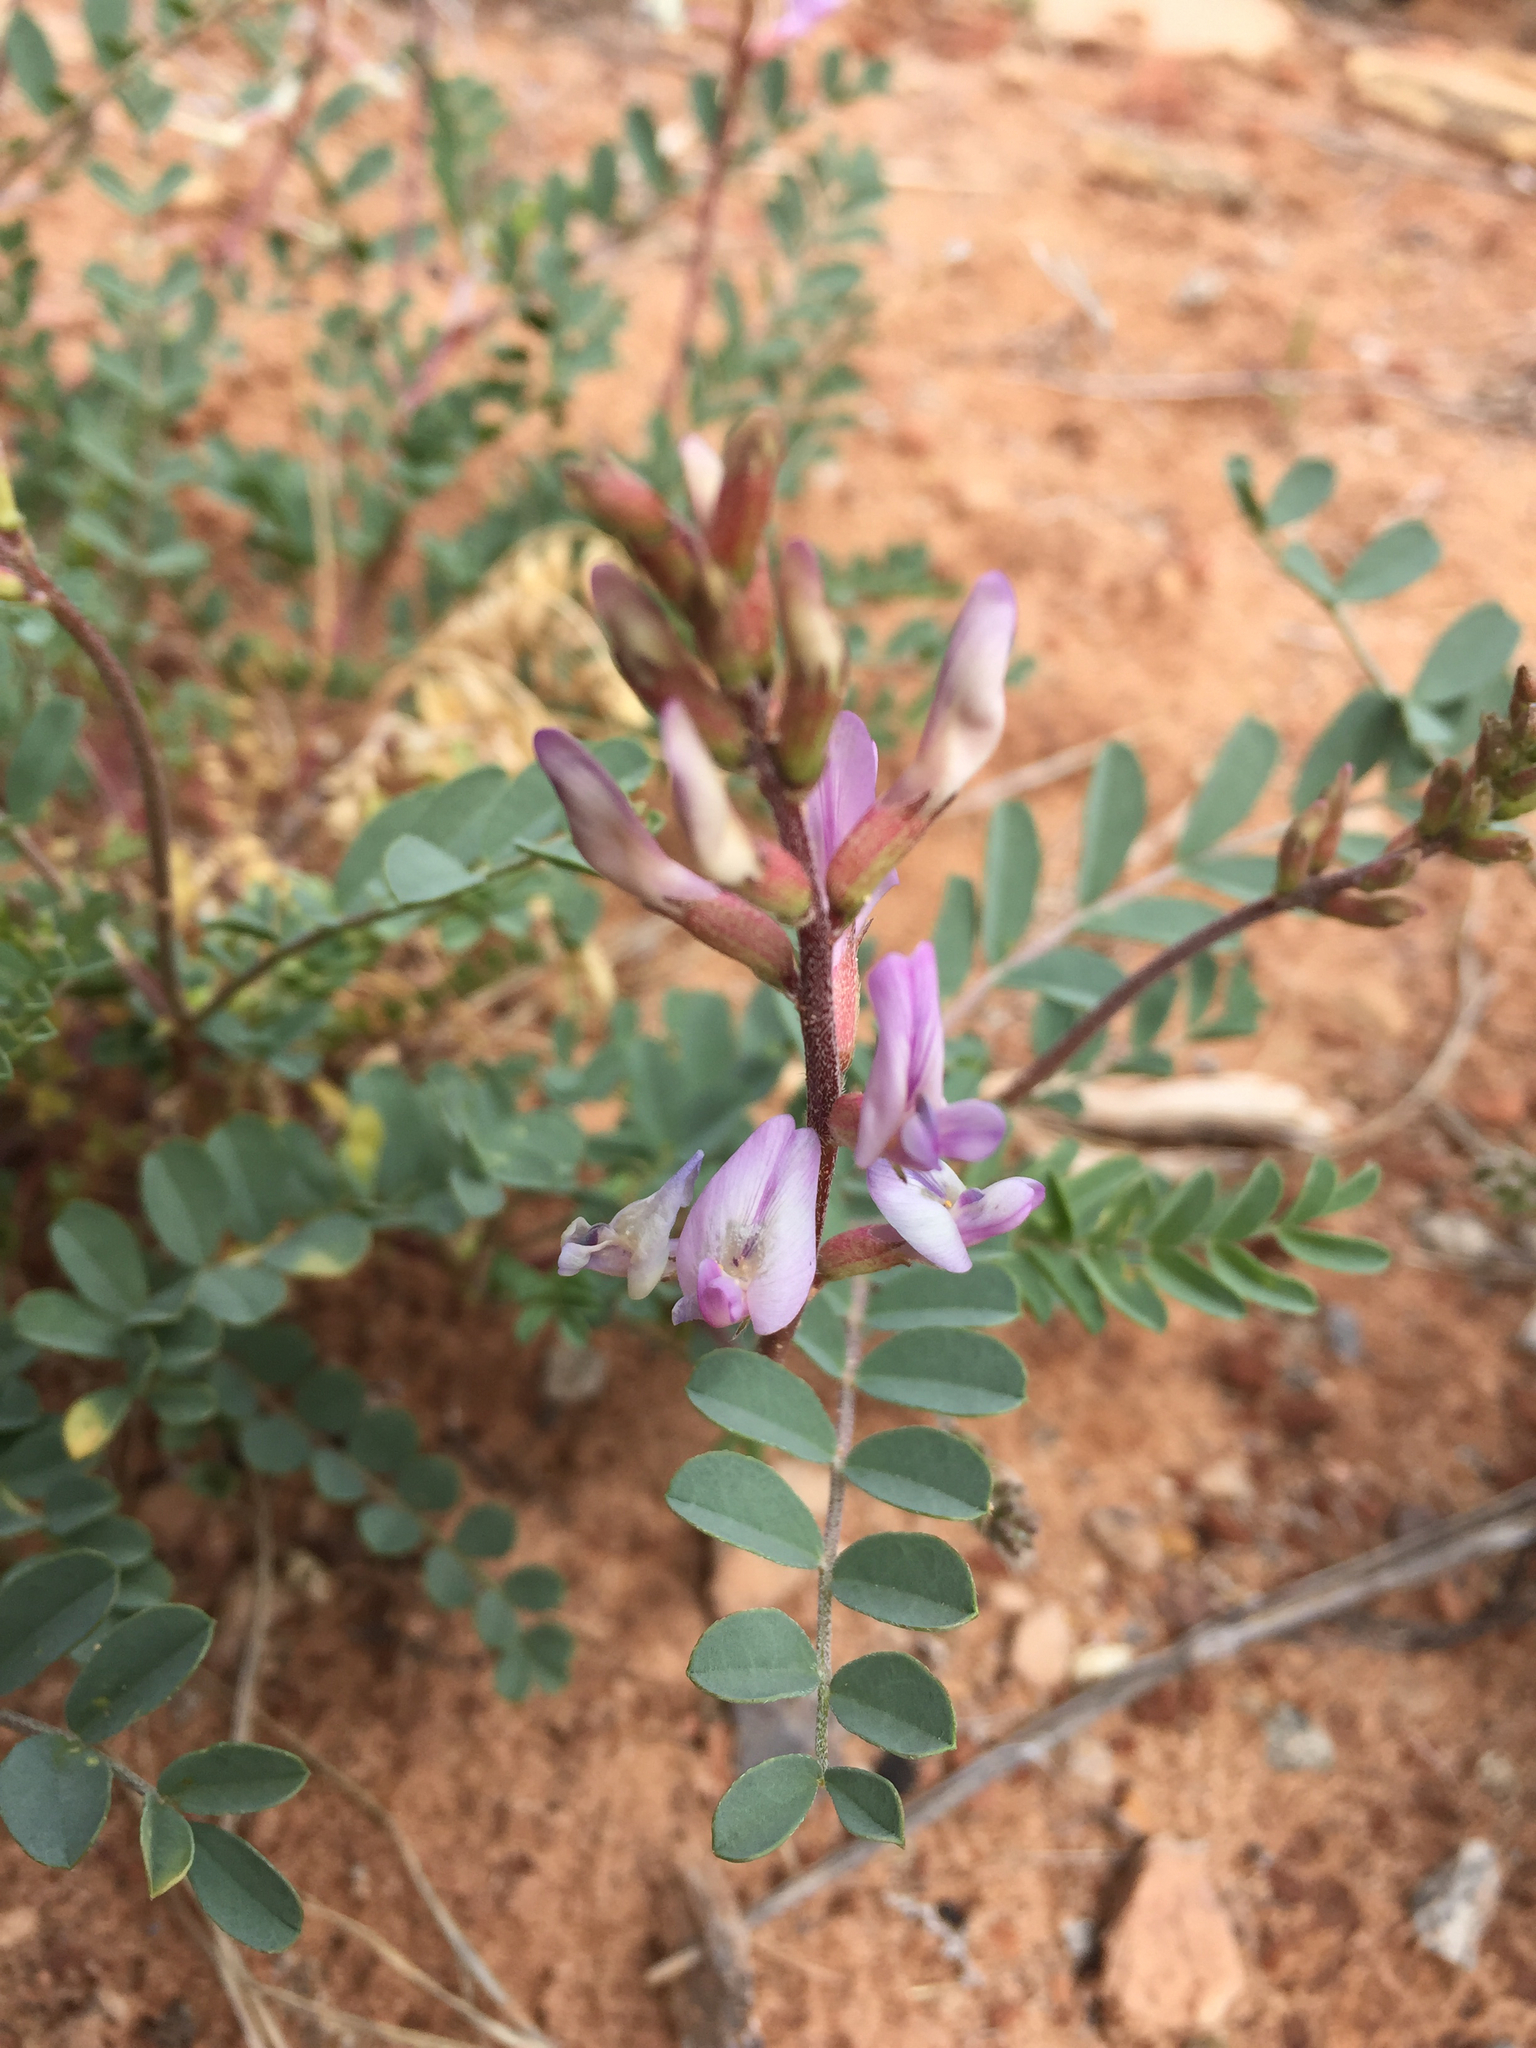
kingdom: Plantae
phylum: Tracheophyta
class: Magnoliopsida
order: Fabales
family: Fabaceae
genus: Astragalus
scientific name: Astragalus preussii
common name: Preuss's milk-vetch
